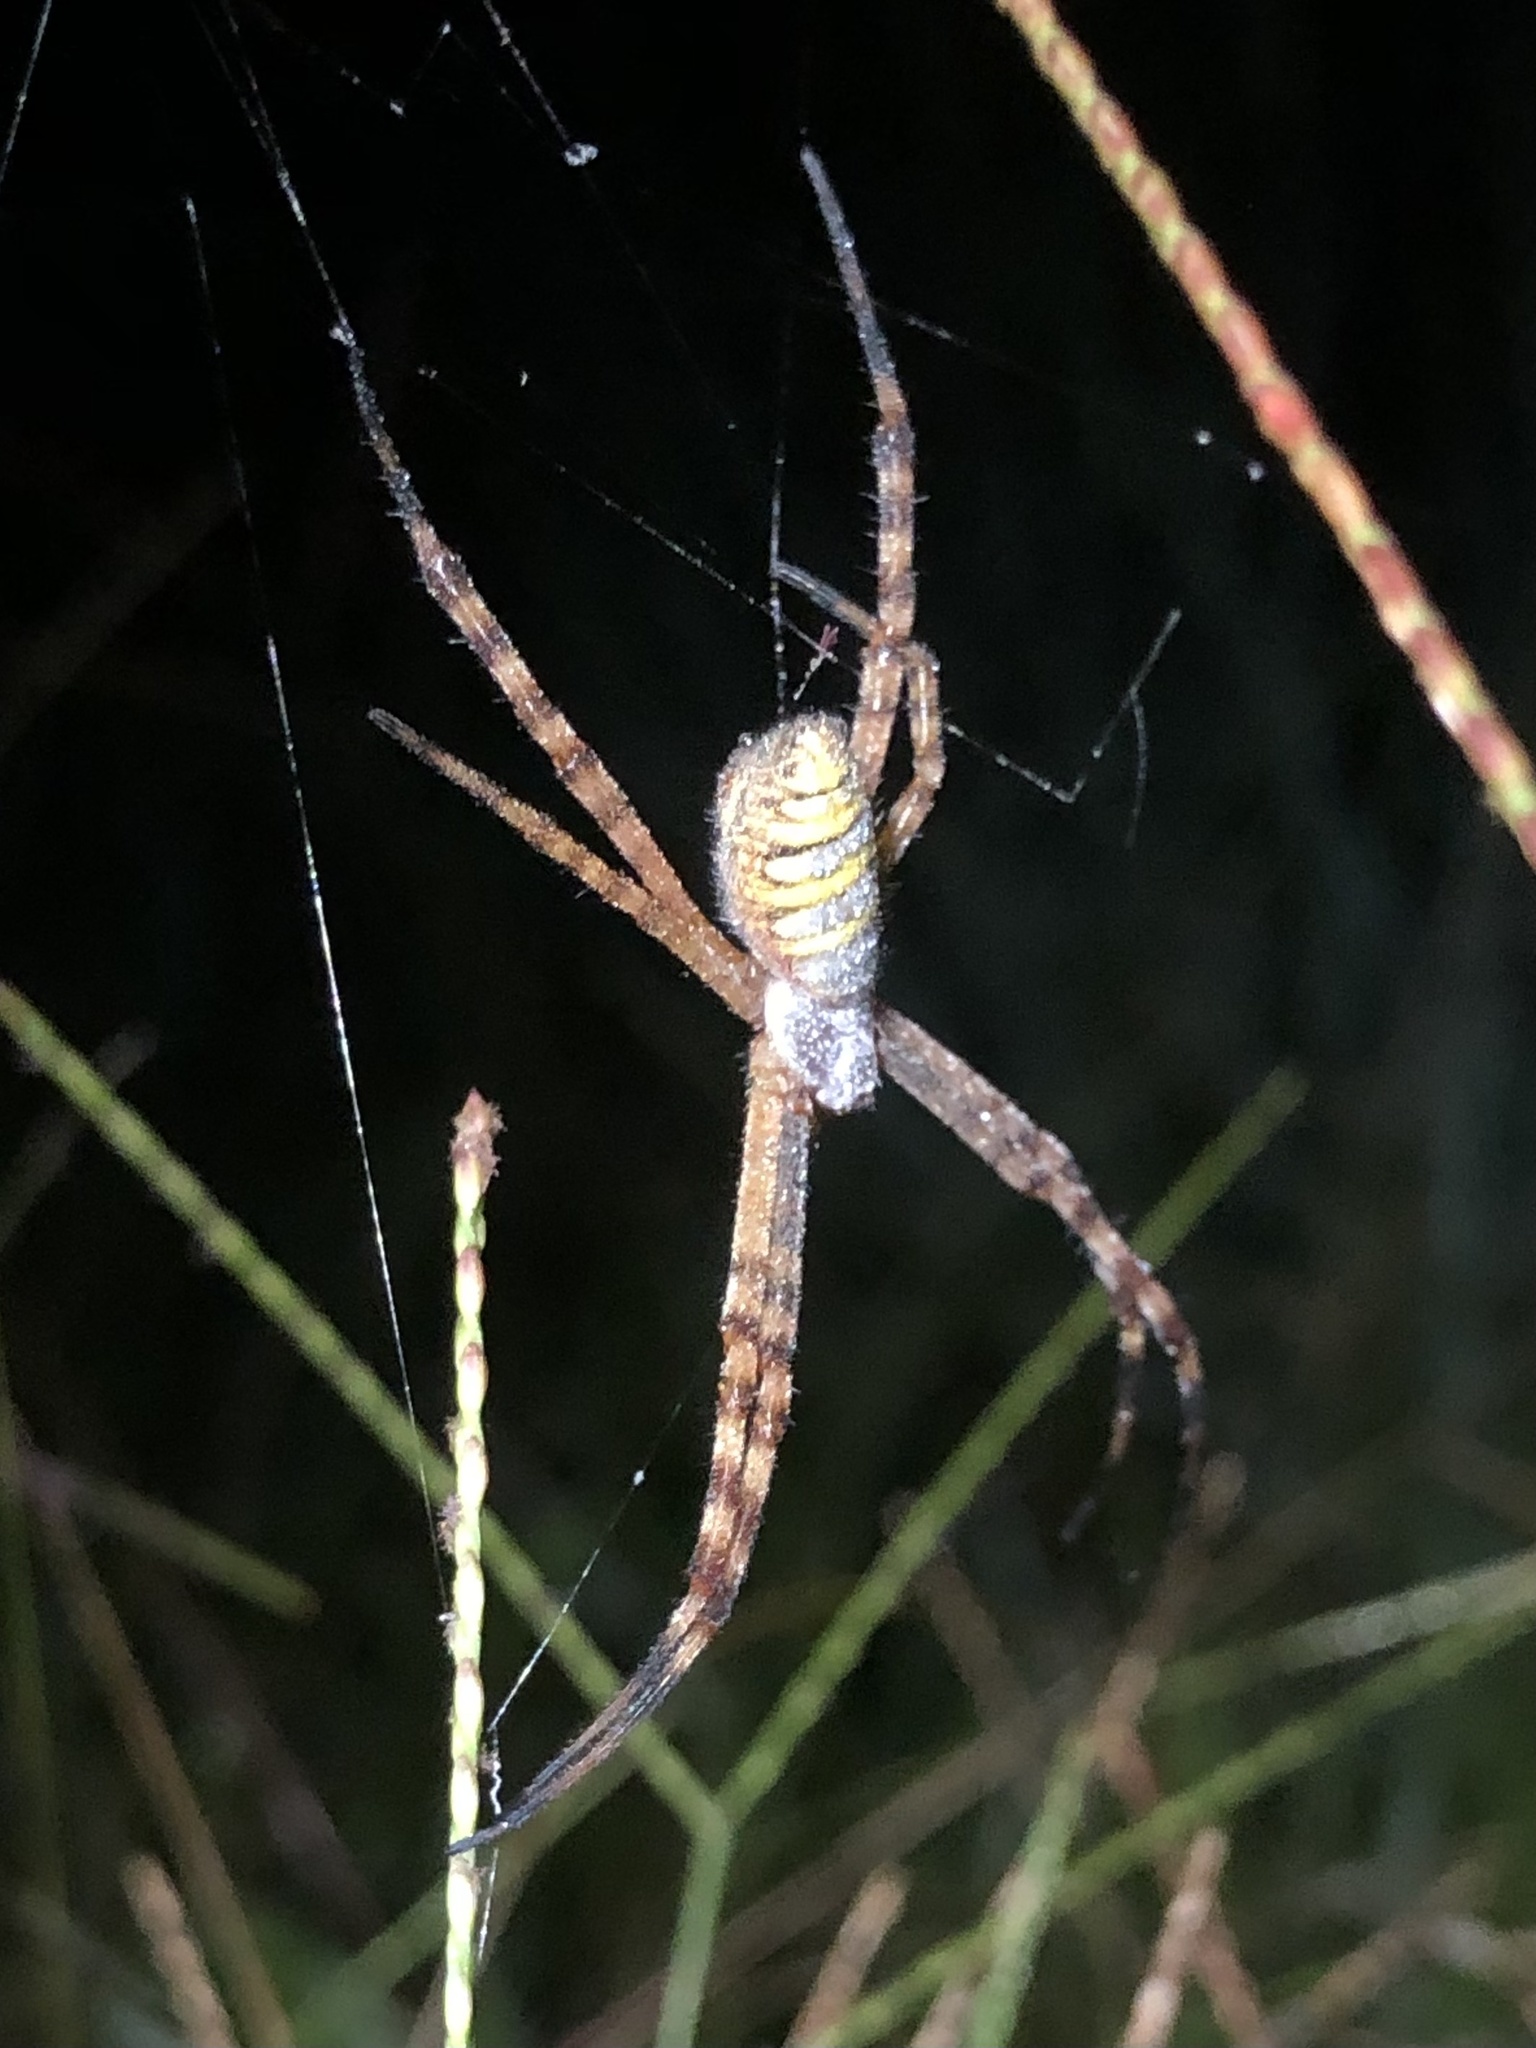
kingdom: Animalia
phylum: Arthropoda
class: Arachnida
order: Araneae
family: Araneidae
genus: Argiope
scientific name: Argiope trifasciata
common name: Banded garden spider
